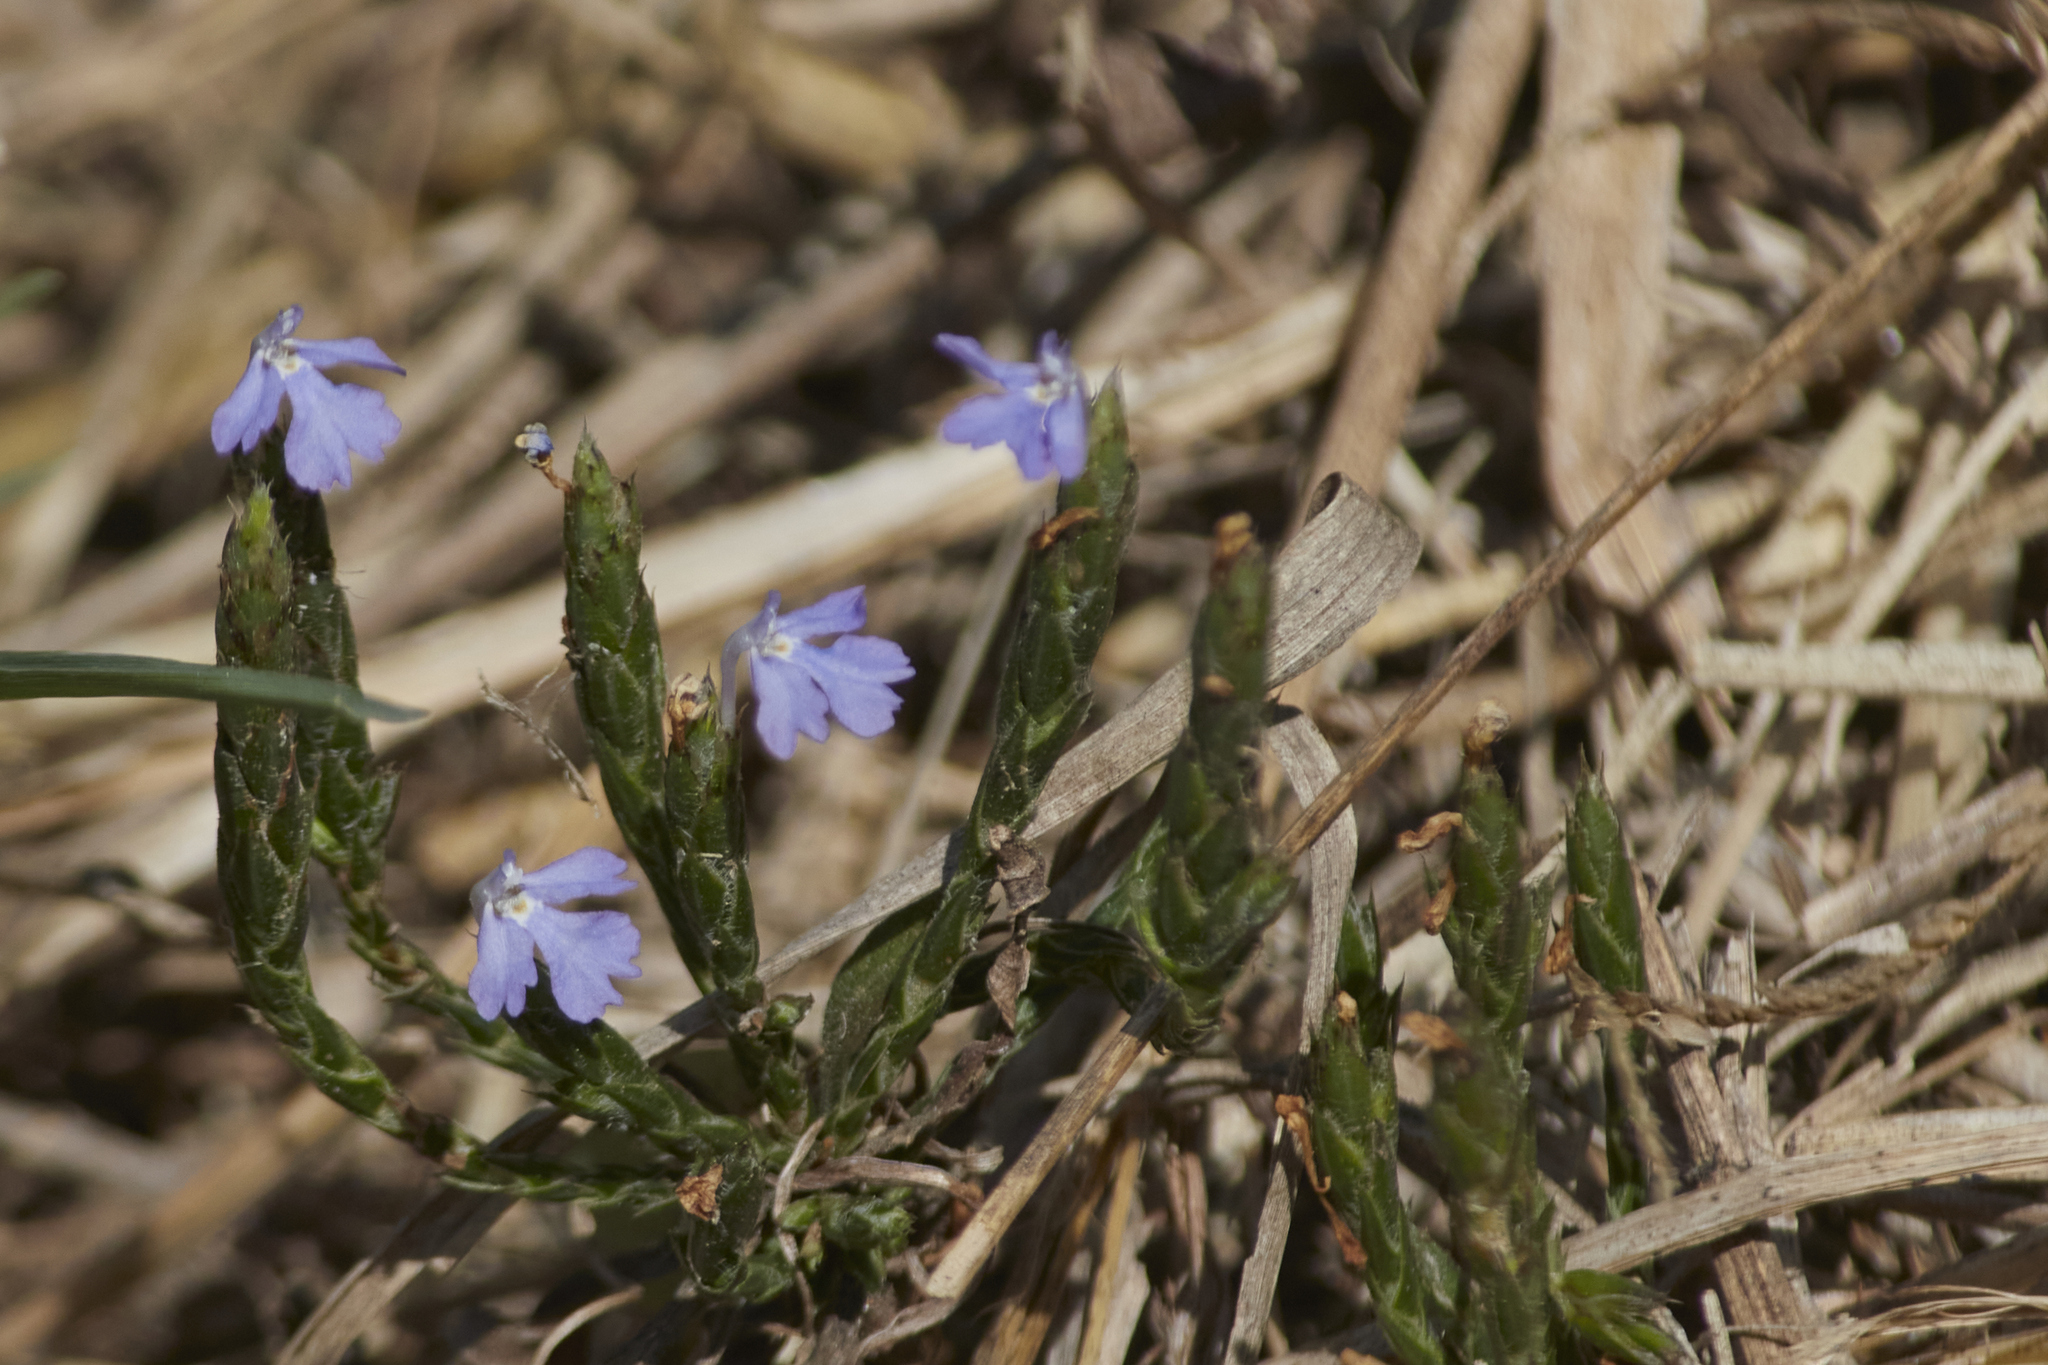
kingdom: Plantae
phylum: Tracheophyta
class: Magnoliopsida
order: Lamiales
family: Acanthaceae
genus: Elytraria
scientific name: Elytraria imbricata
